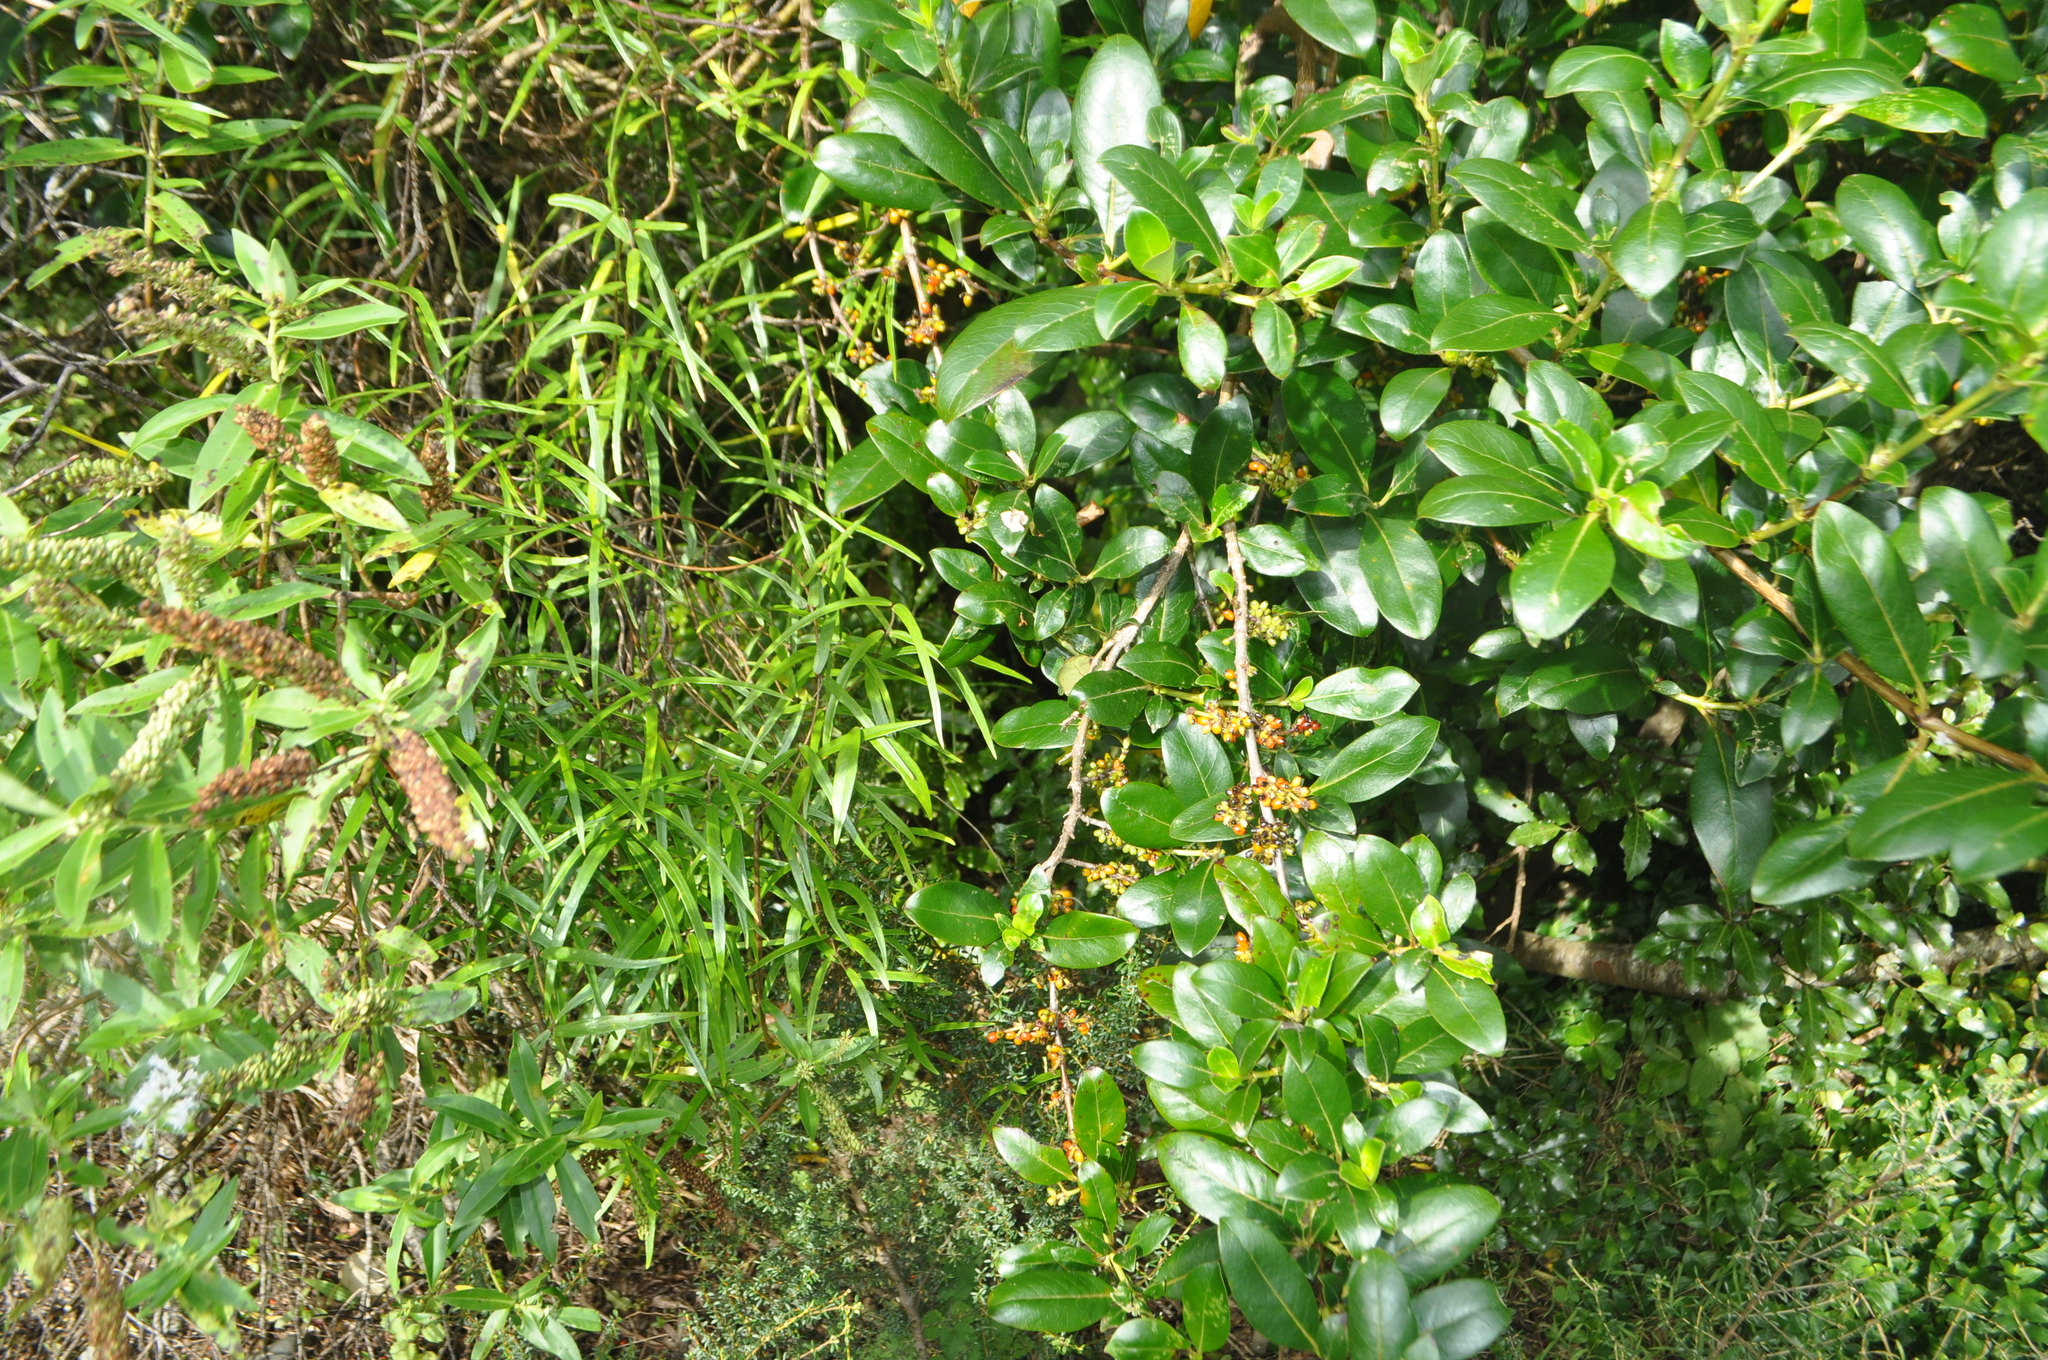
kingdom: Plantae
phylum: Tracheophyta
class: Magnoliopsida
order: Gentianales
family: Rubiaceae
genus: Coprosma
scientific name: Coprosma robusta
